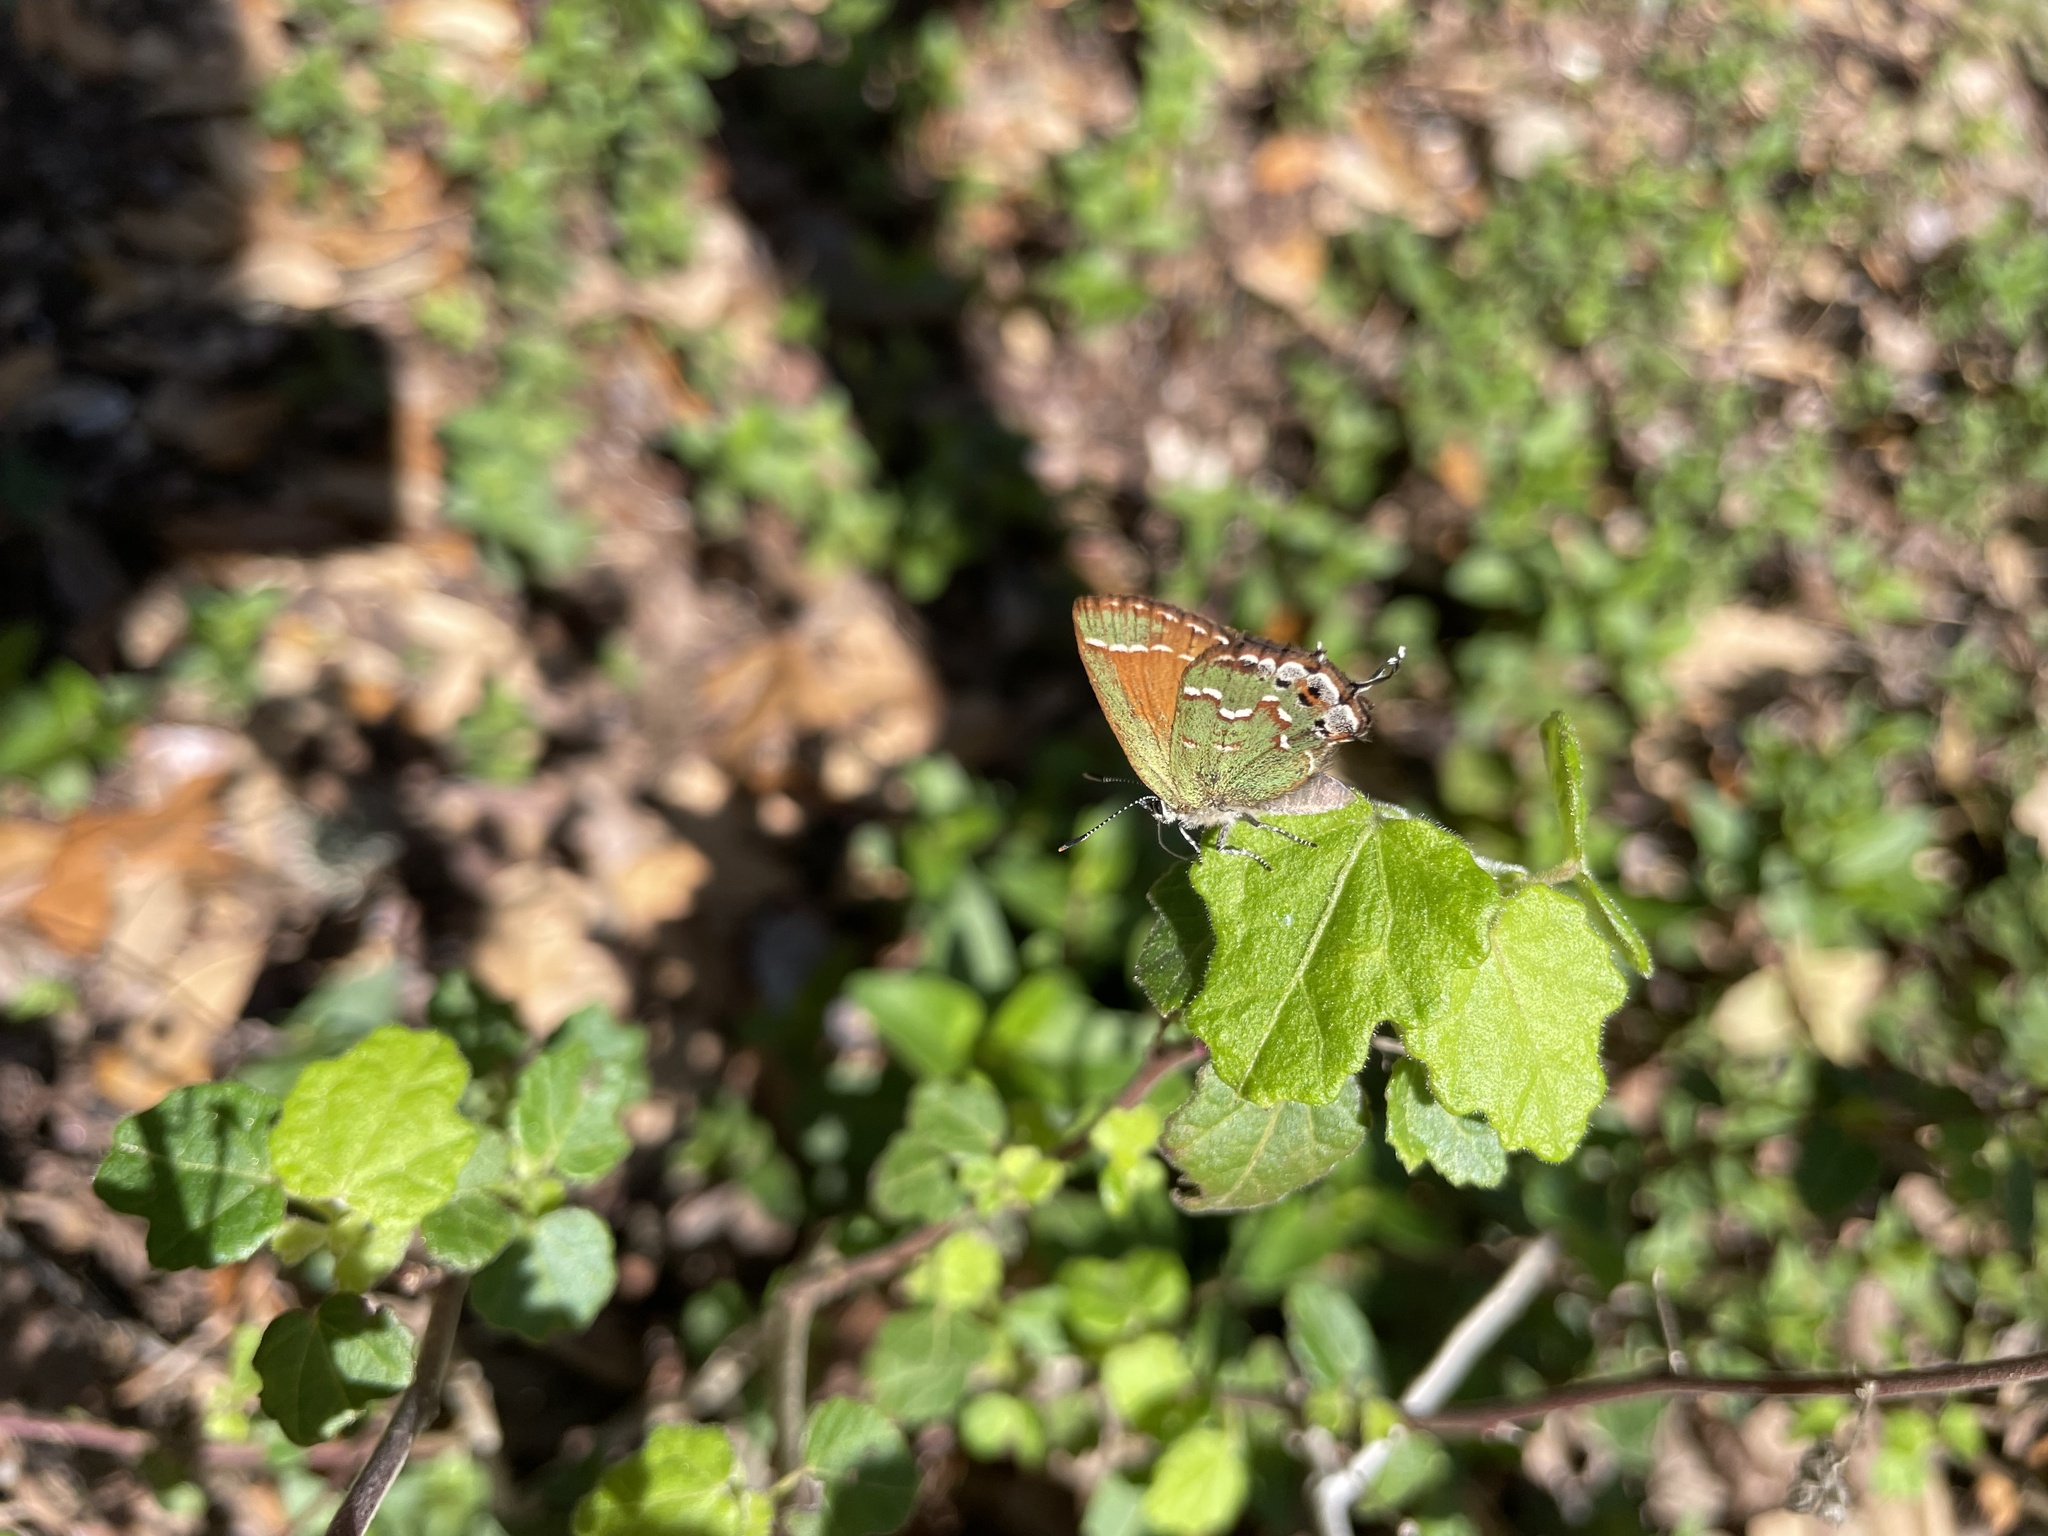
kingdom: Animalia
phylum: Arthropoda
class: Insecta
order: Lepidoptera
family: Lycaenidae
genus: Mitoura
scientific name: Mitoura gryneus
